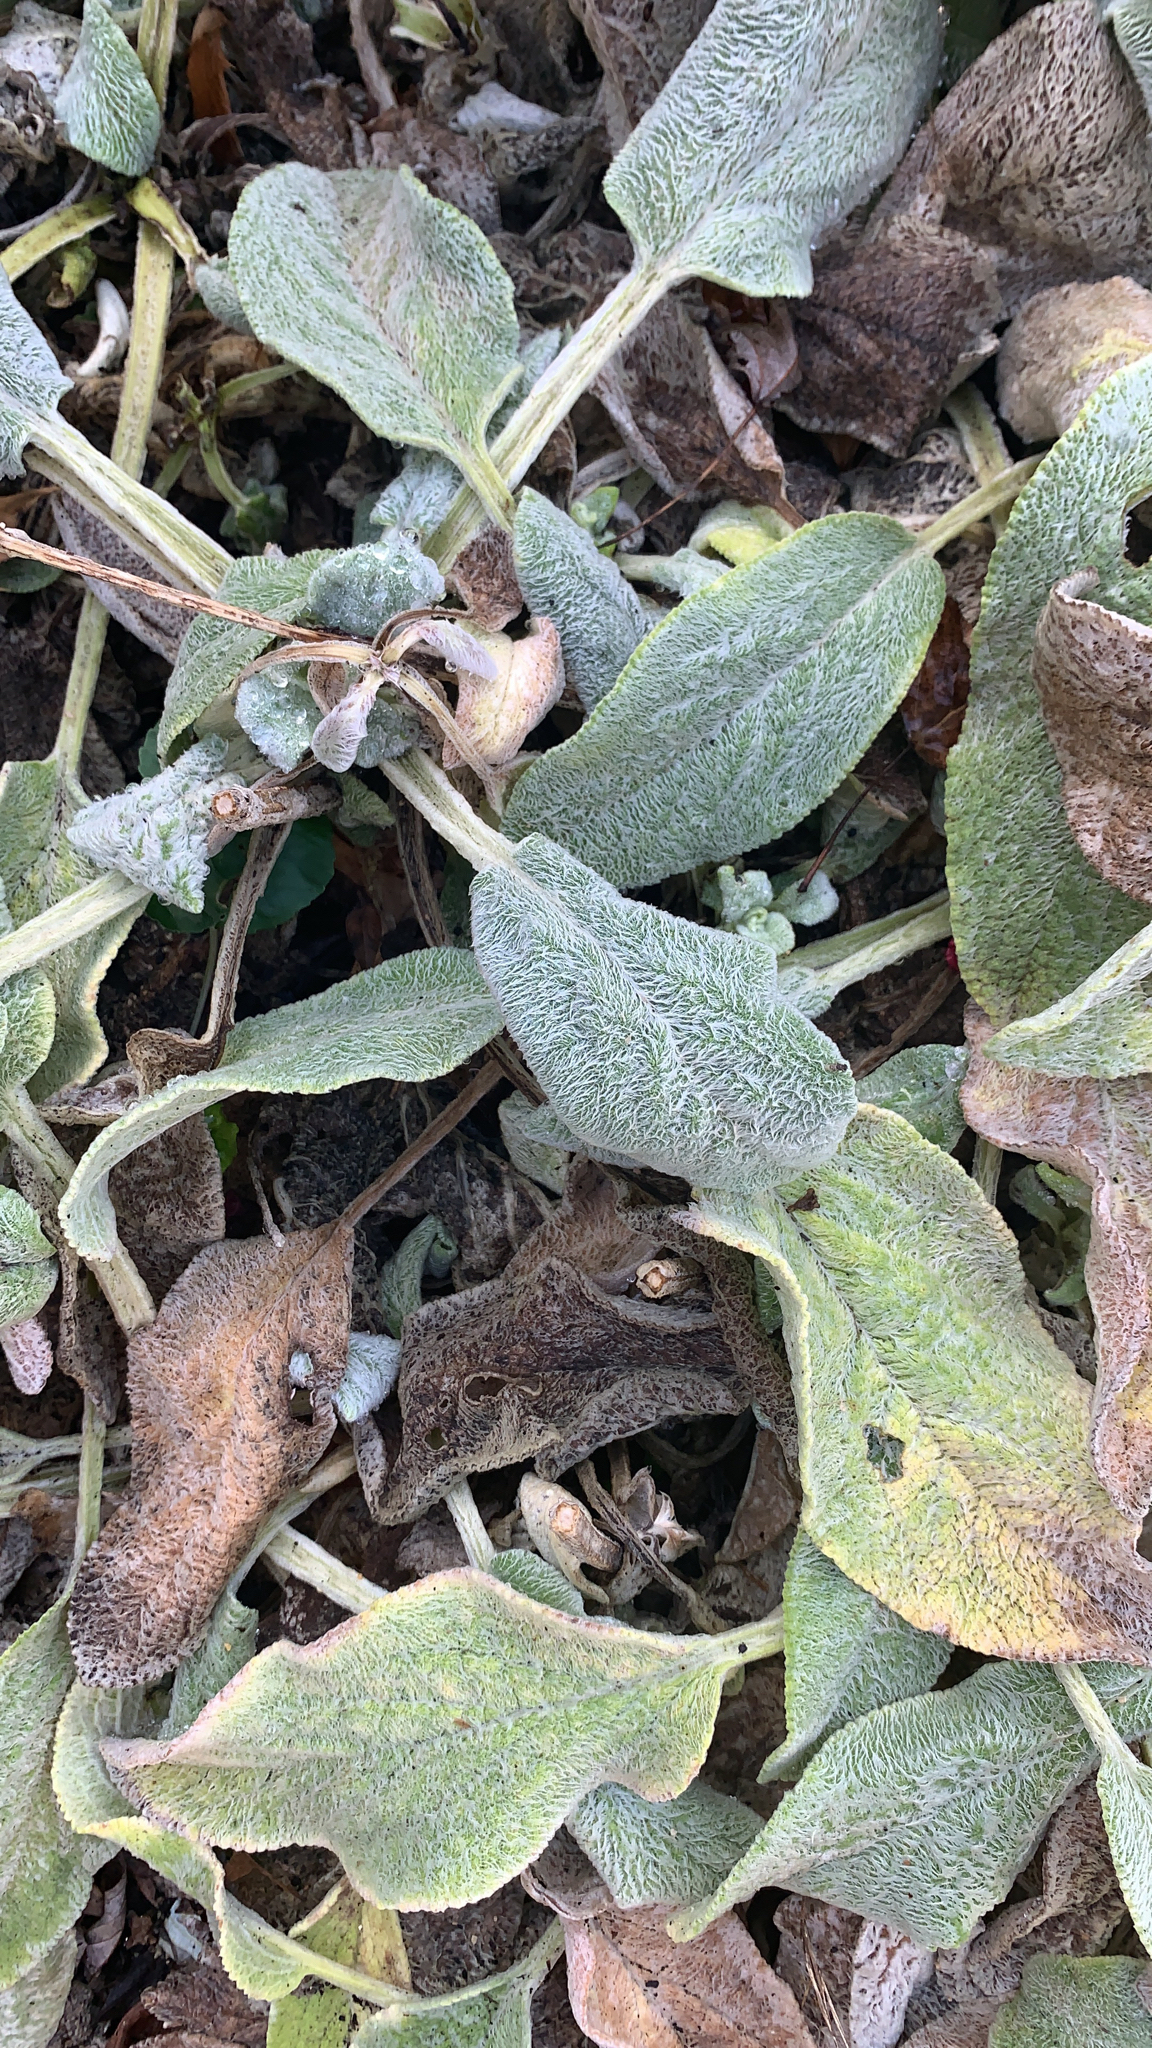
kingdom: Plantae
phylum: Tracheophyta
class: Magnoliopsida
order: Lamiales
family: Lamiaceae
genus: Stachys
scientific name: Stachys byzantina
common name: Lamb's-ear
